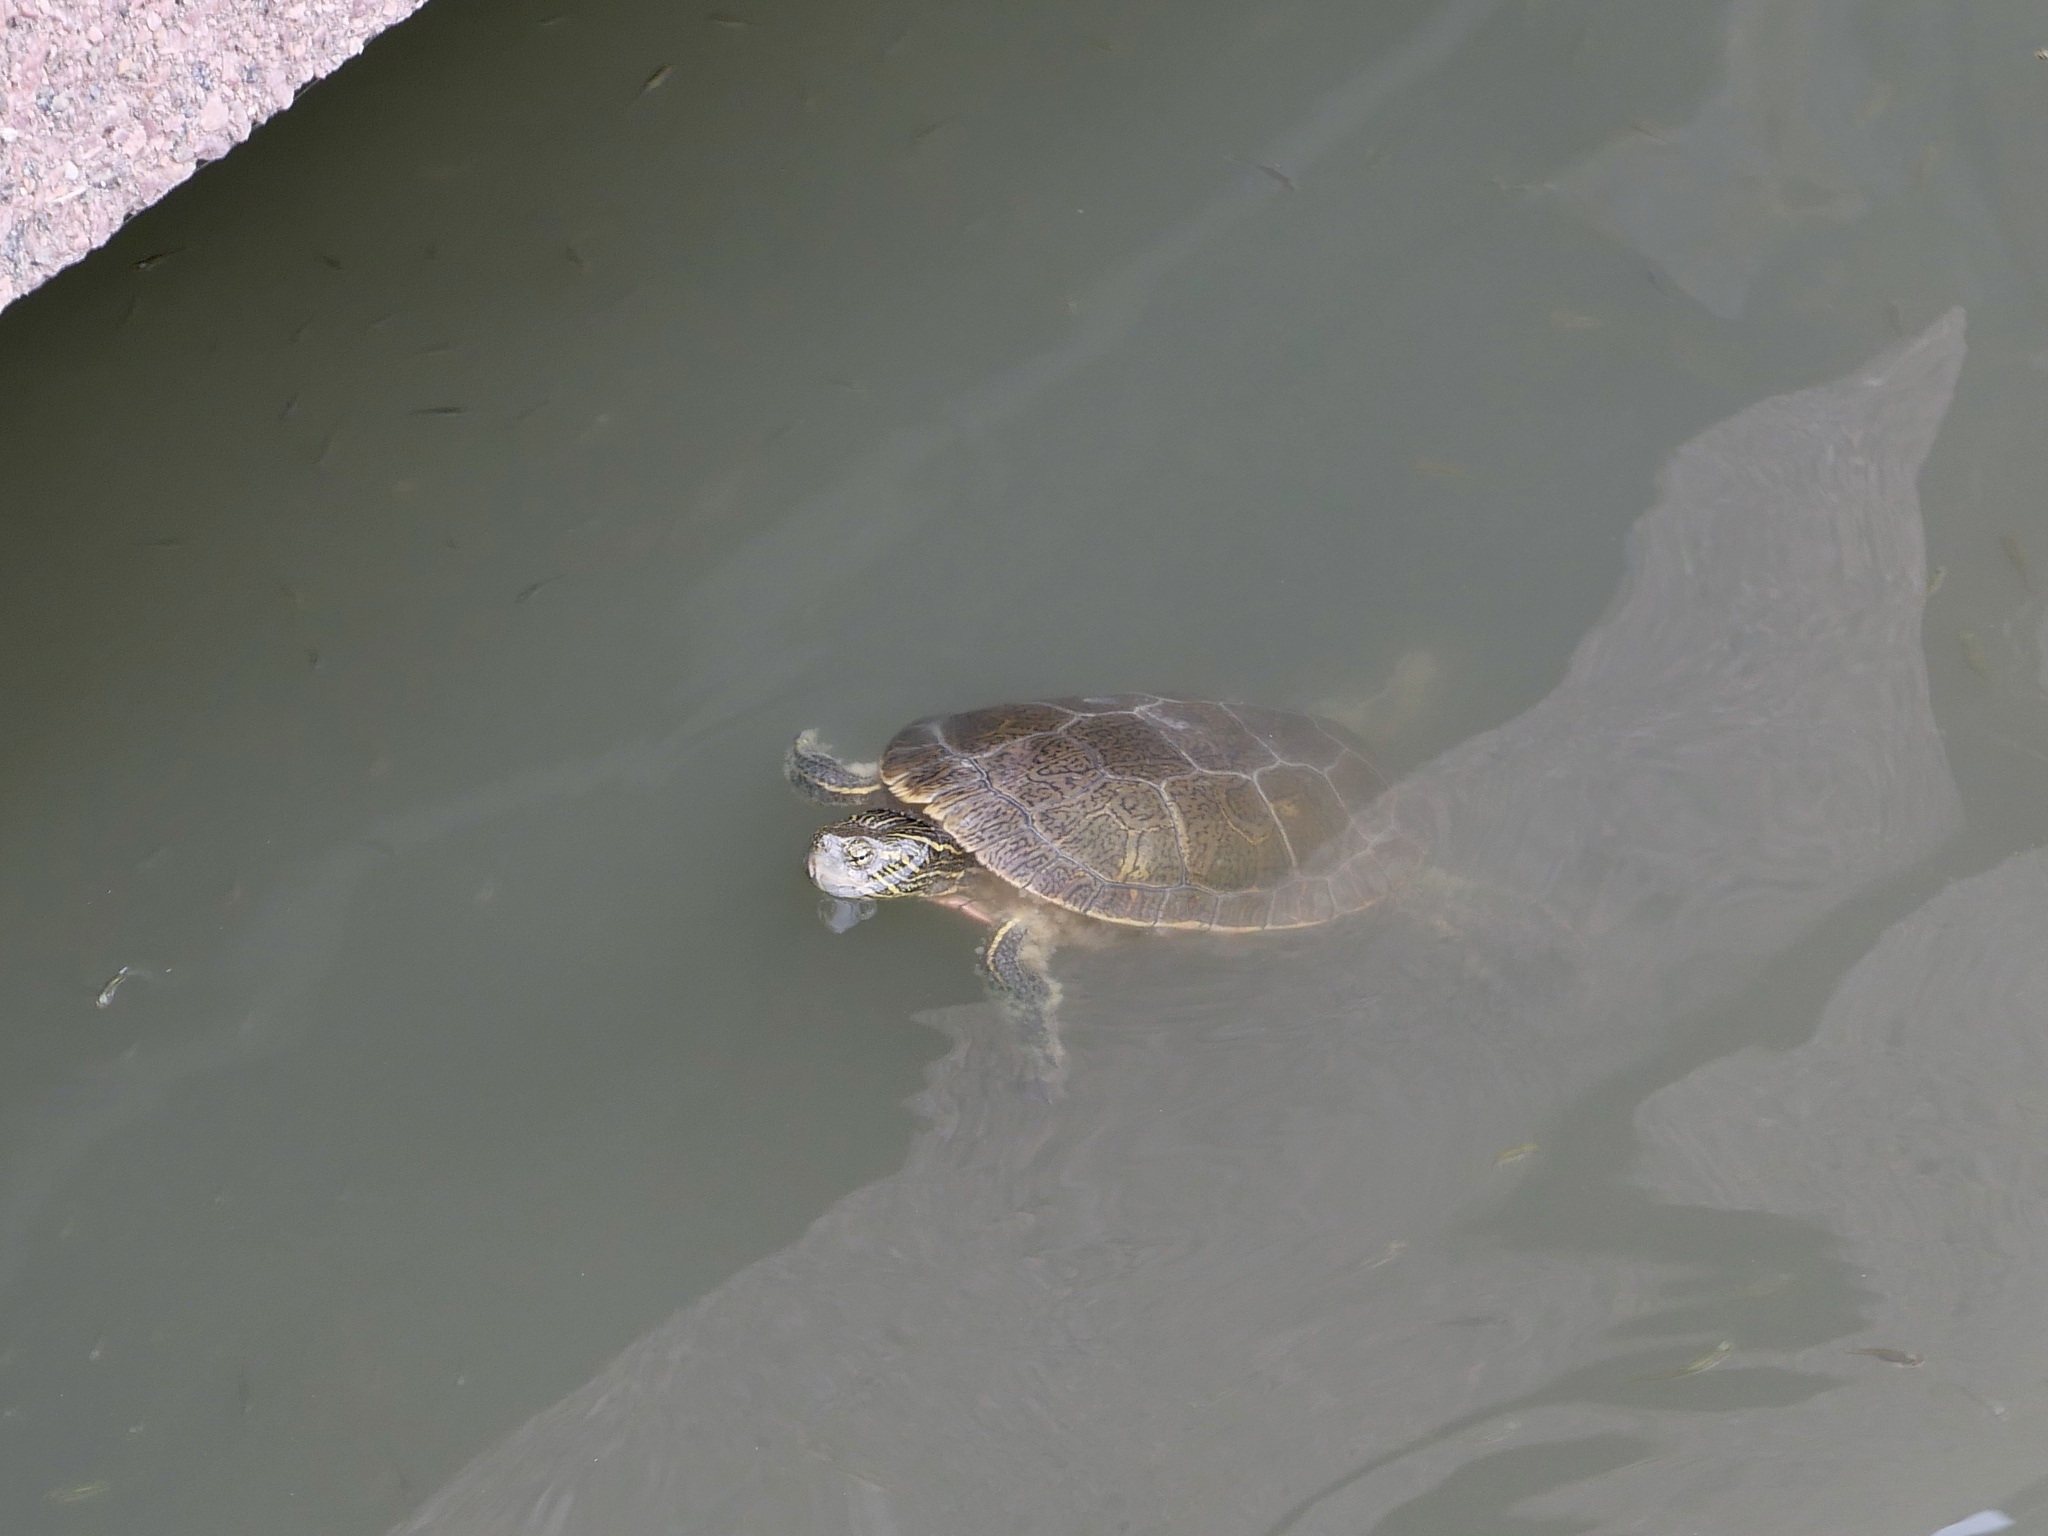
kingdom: Animalia
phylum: Chordata
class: Testudines
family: Emydidae
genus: Chrysemys
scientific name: Chrysemys picta
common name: Painted turtle
